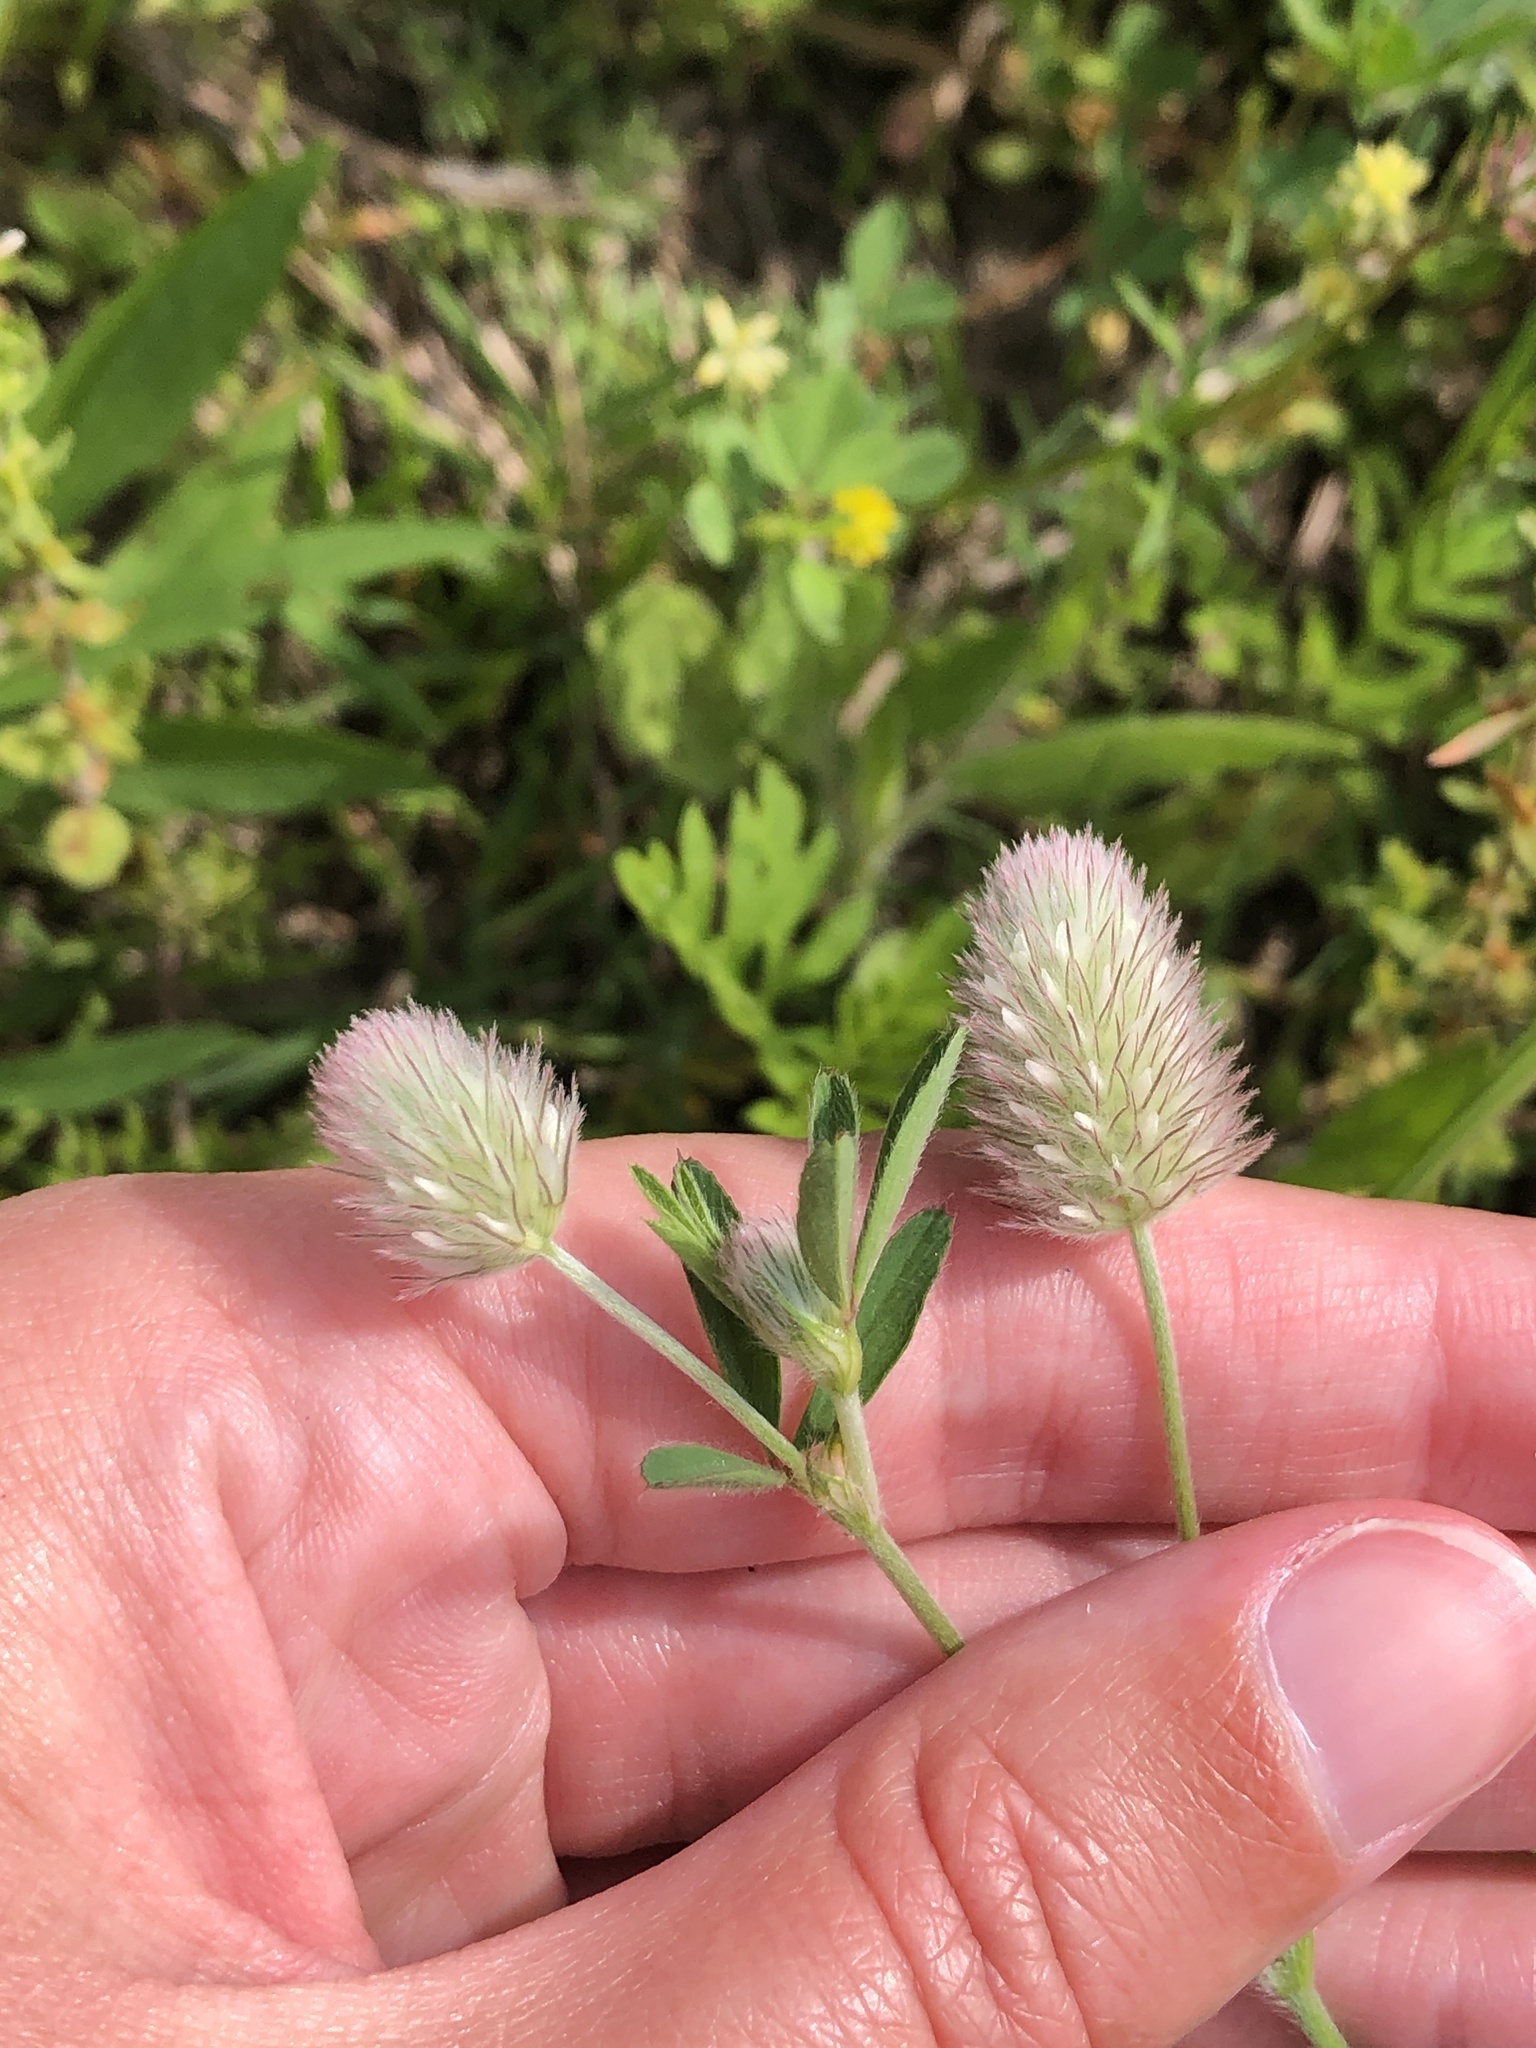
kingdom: Plantae
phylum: Tracheophyta
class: Magnoliopsida
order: Fabales
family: Fabaceae
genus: Trifolium
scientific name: Trifolium arvense
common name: Hare's-foot clover
